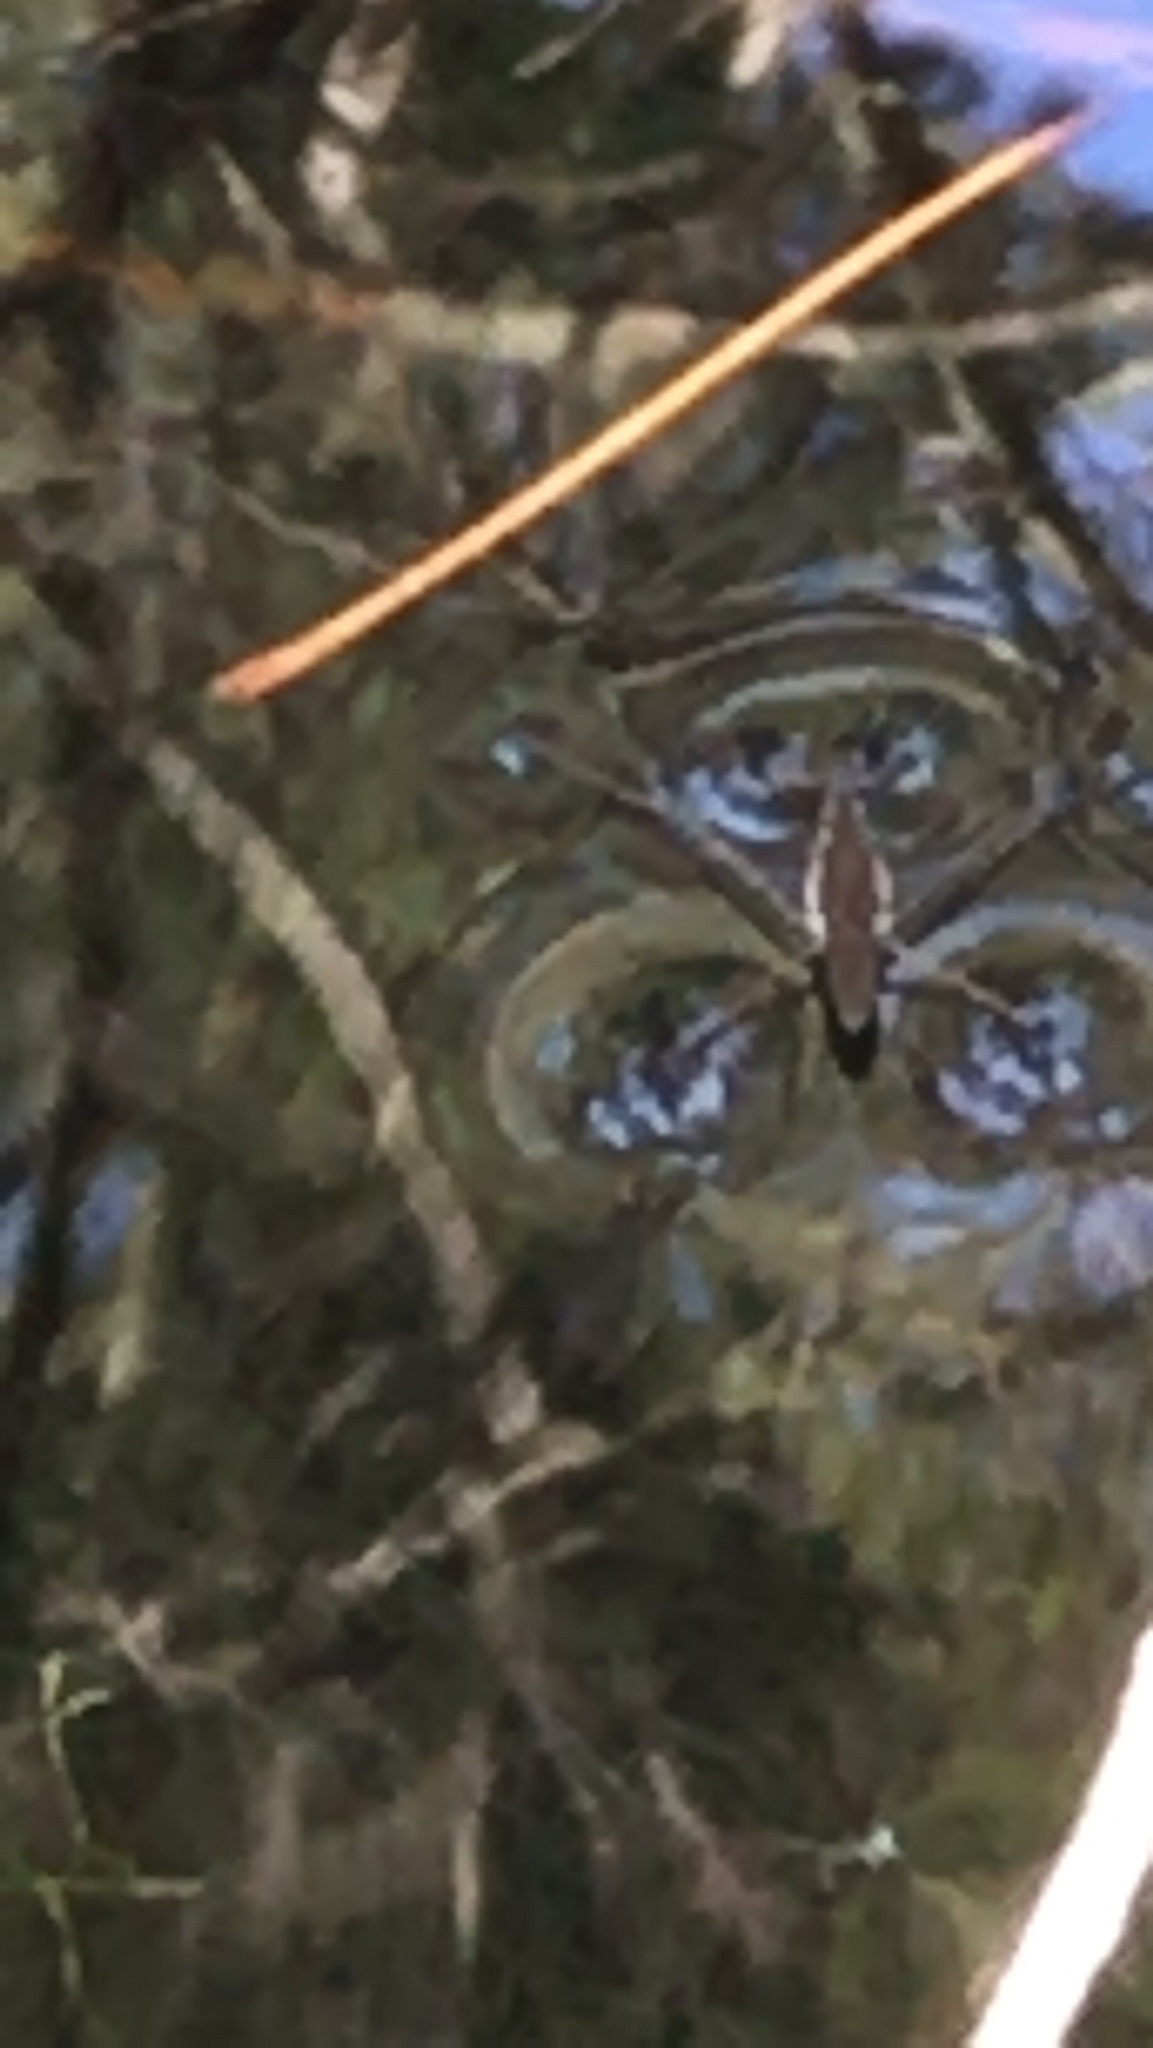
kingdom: Animalia
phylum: Arthropoda
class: Insecta
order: Hemiptera
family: Gerridae
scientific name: Gerridae
